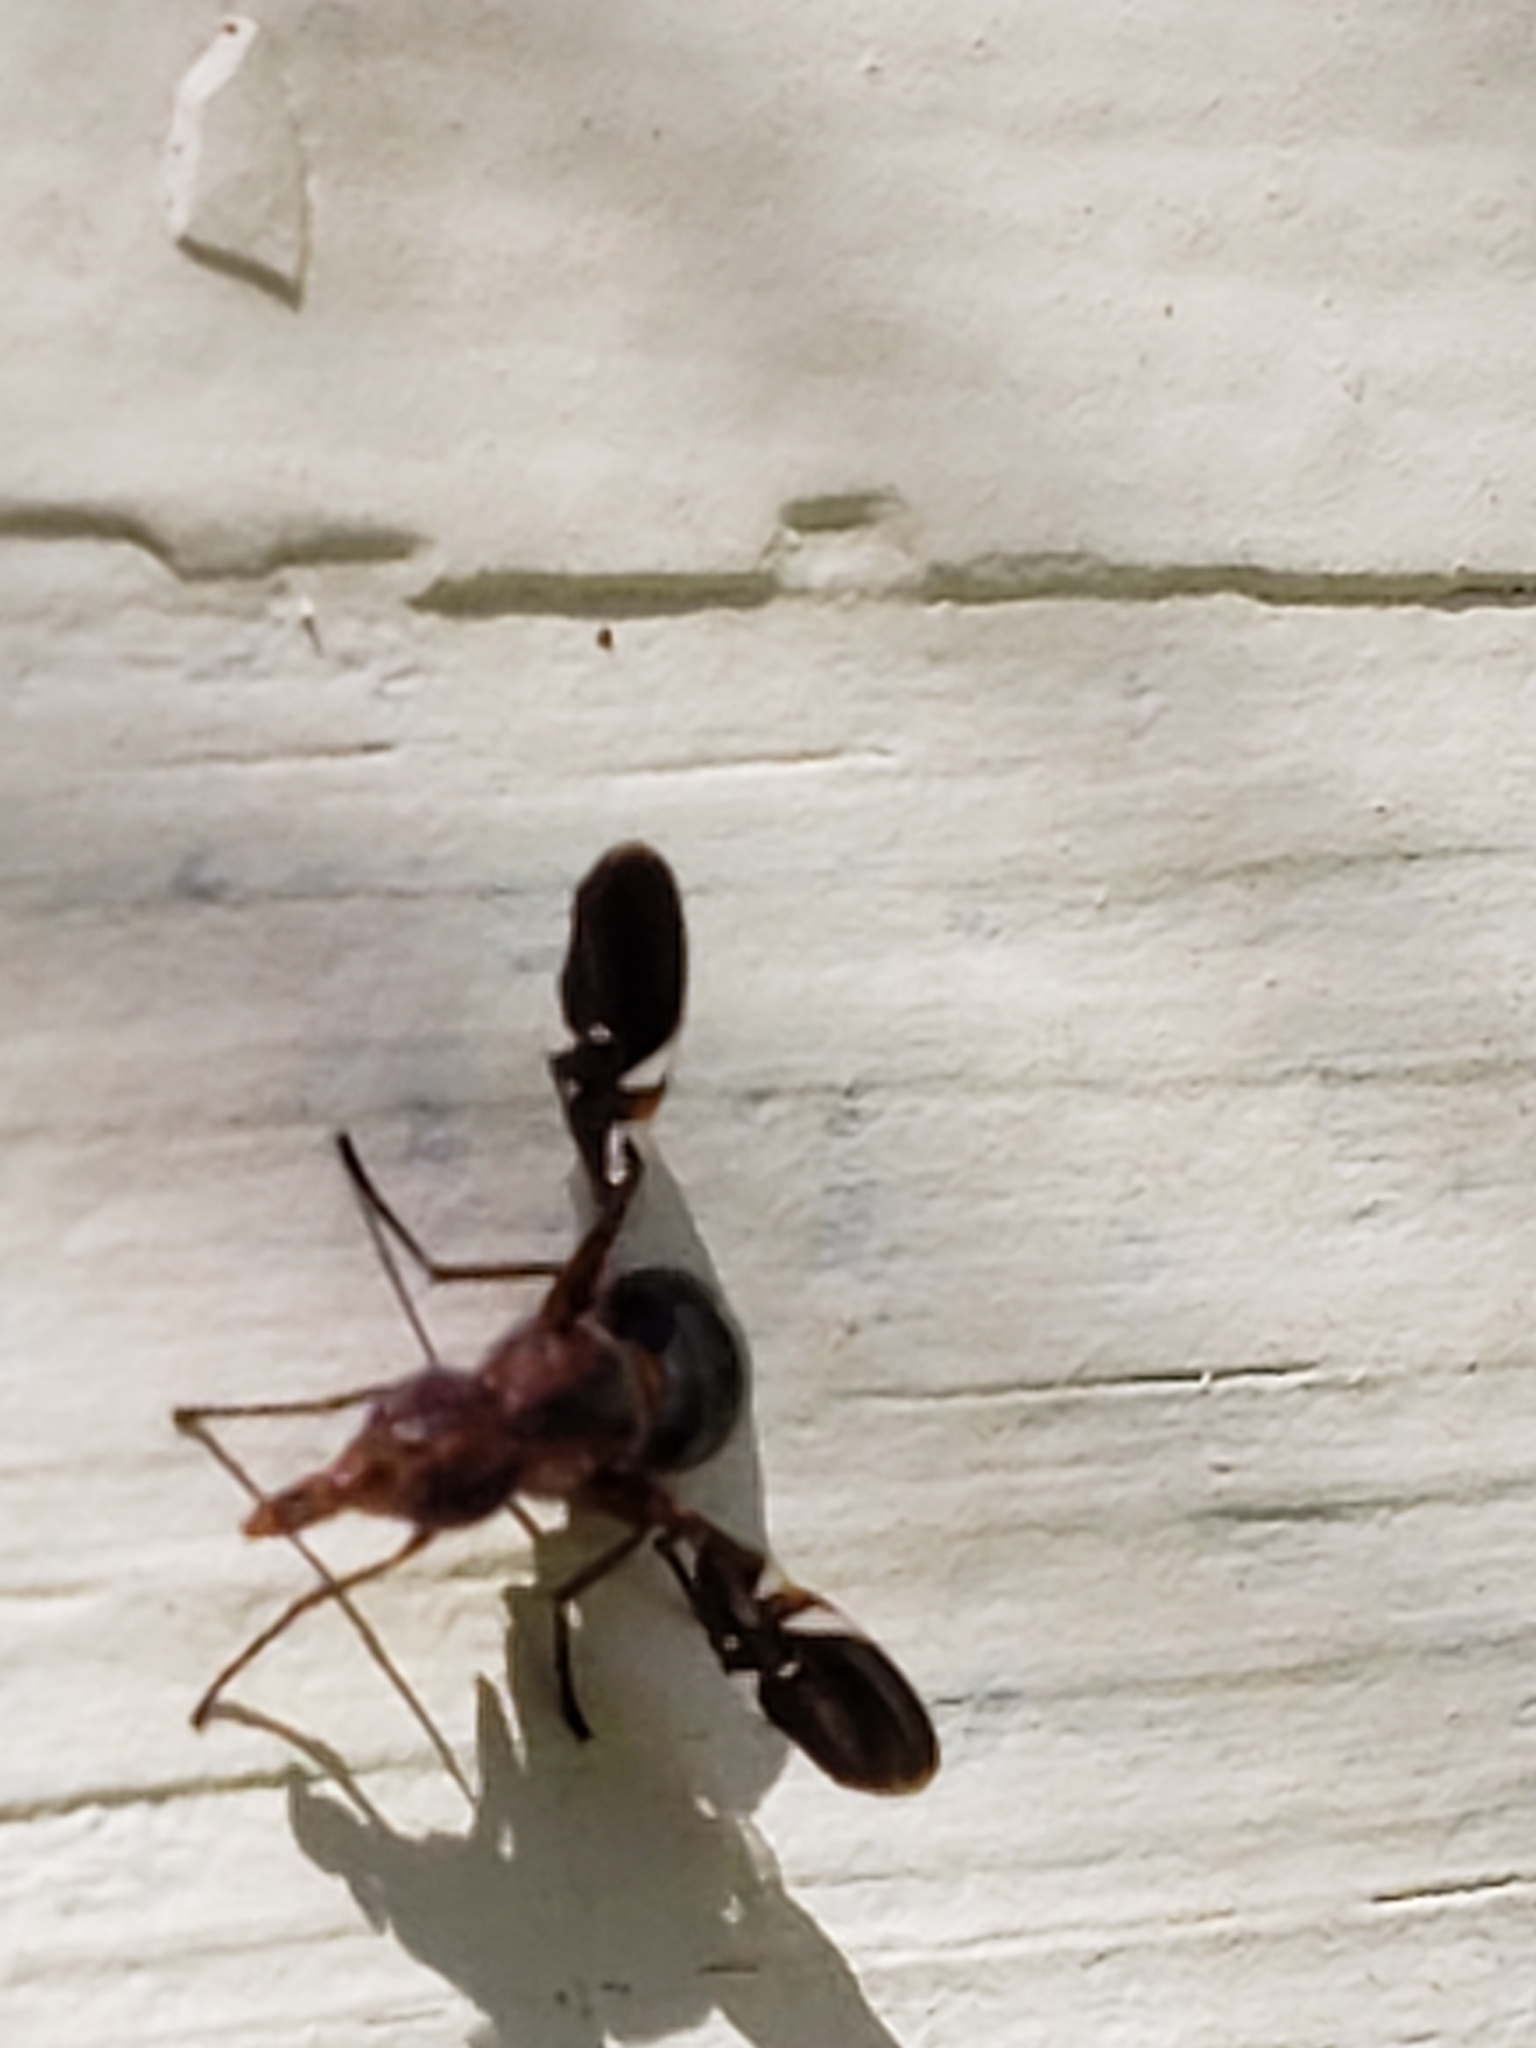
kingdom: Animalia
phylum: Arthropoda
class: Insecta
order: Diptera
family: Ulidiidae
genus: Delphinia
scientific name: Delphinia picta
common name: Common picture-winged fly
